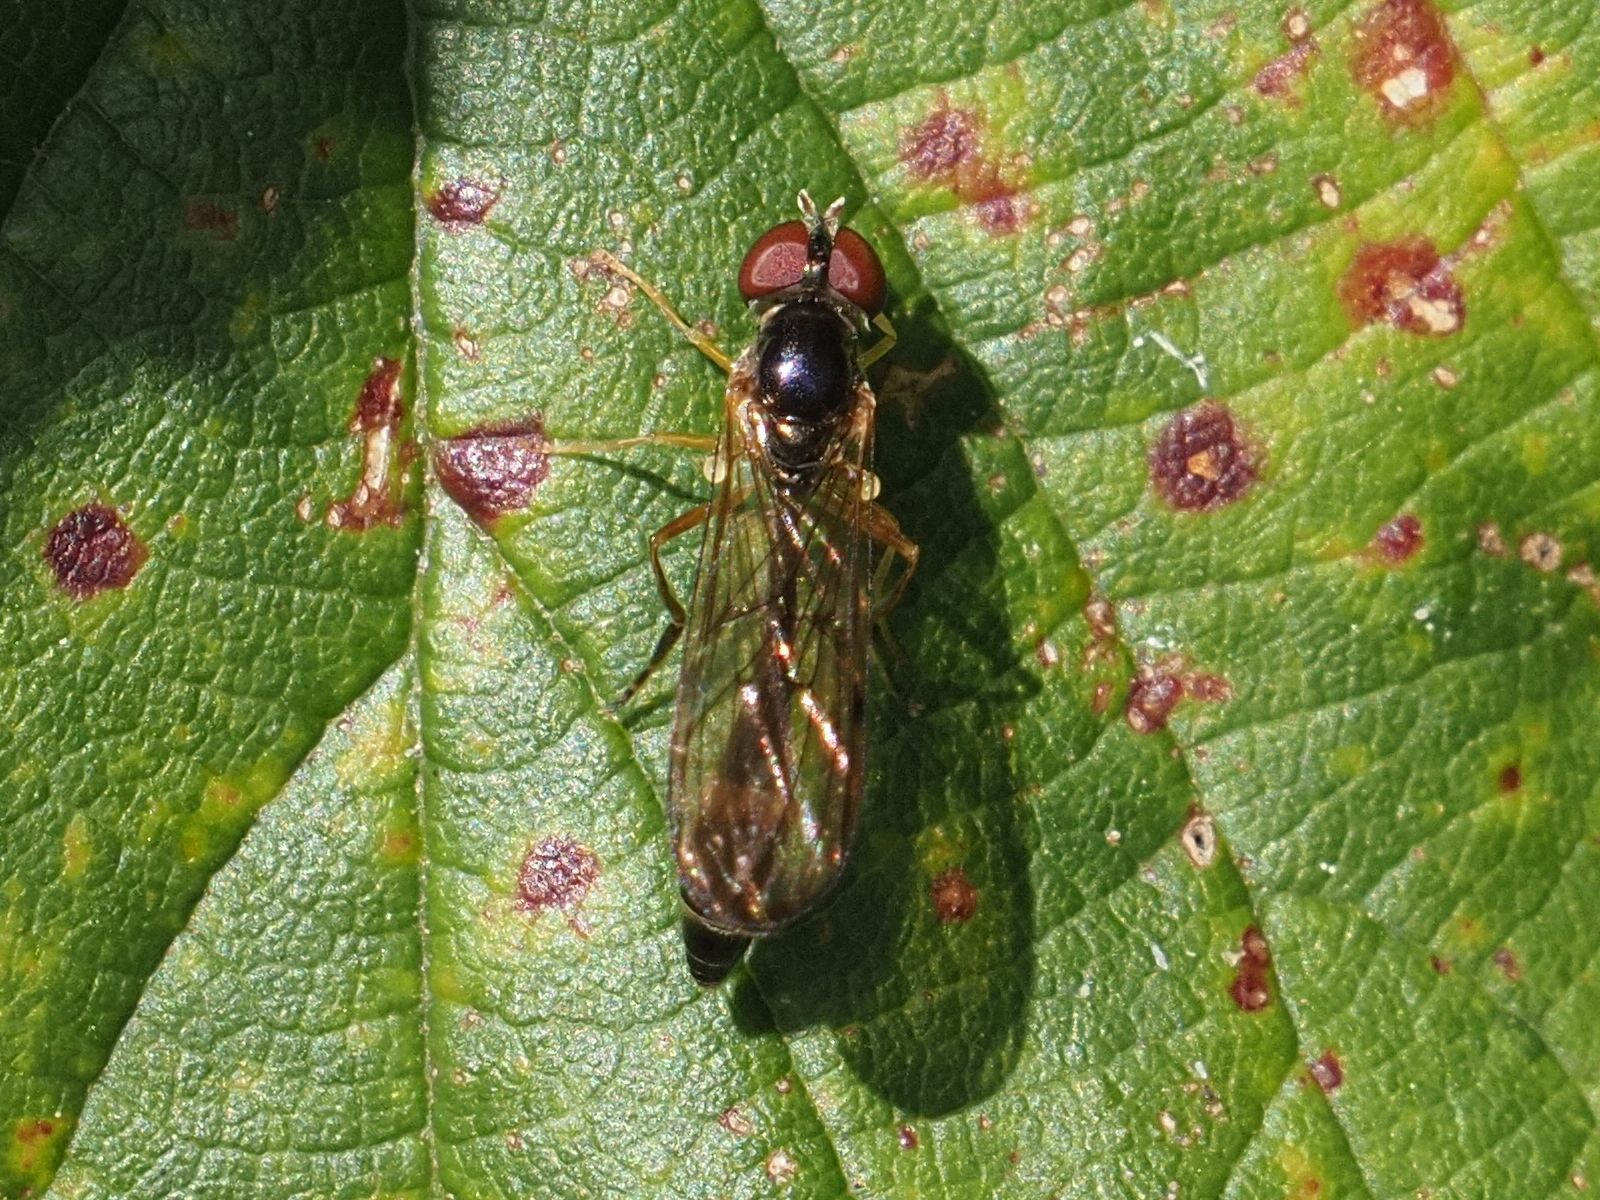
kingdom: Animalia
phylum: Arthropoda
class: Insecta
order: Diptera
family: Syrphidae
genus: Baccha
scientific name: Baccha elongata
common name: Common dainty
